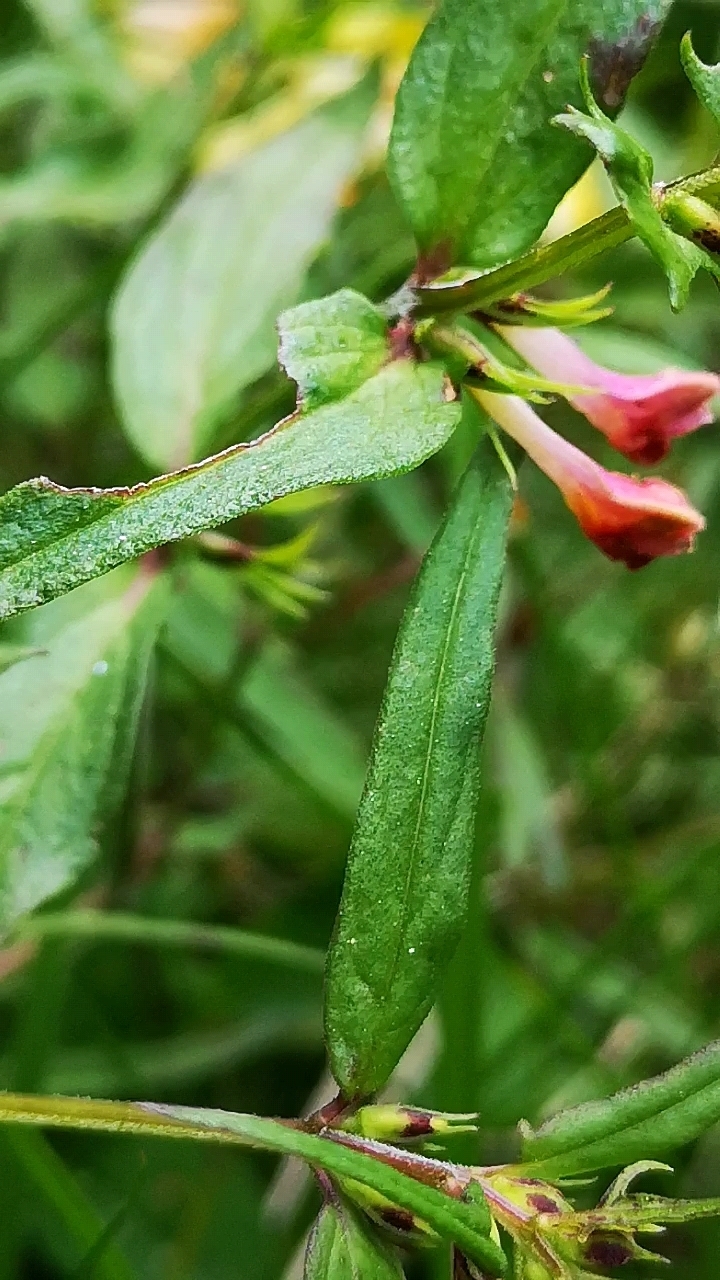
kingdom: Plantae
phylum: Tracheophyta
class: Magnoliopsida
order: Lamiales
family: Orobanchaceae
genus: Melampyrum
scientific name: Melampyrum pratense
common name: Common cow-wheat
